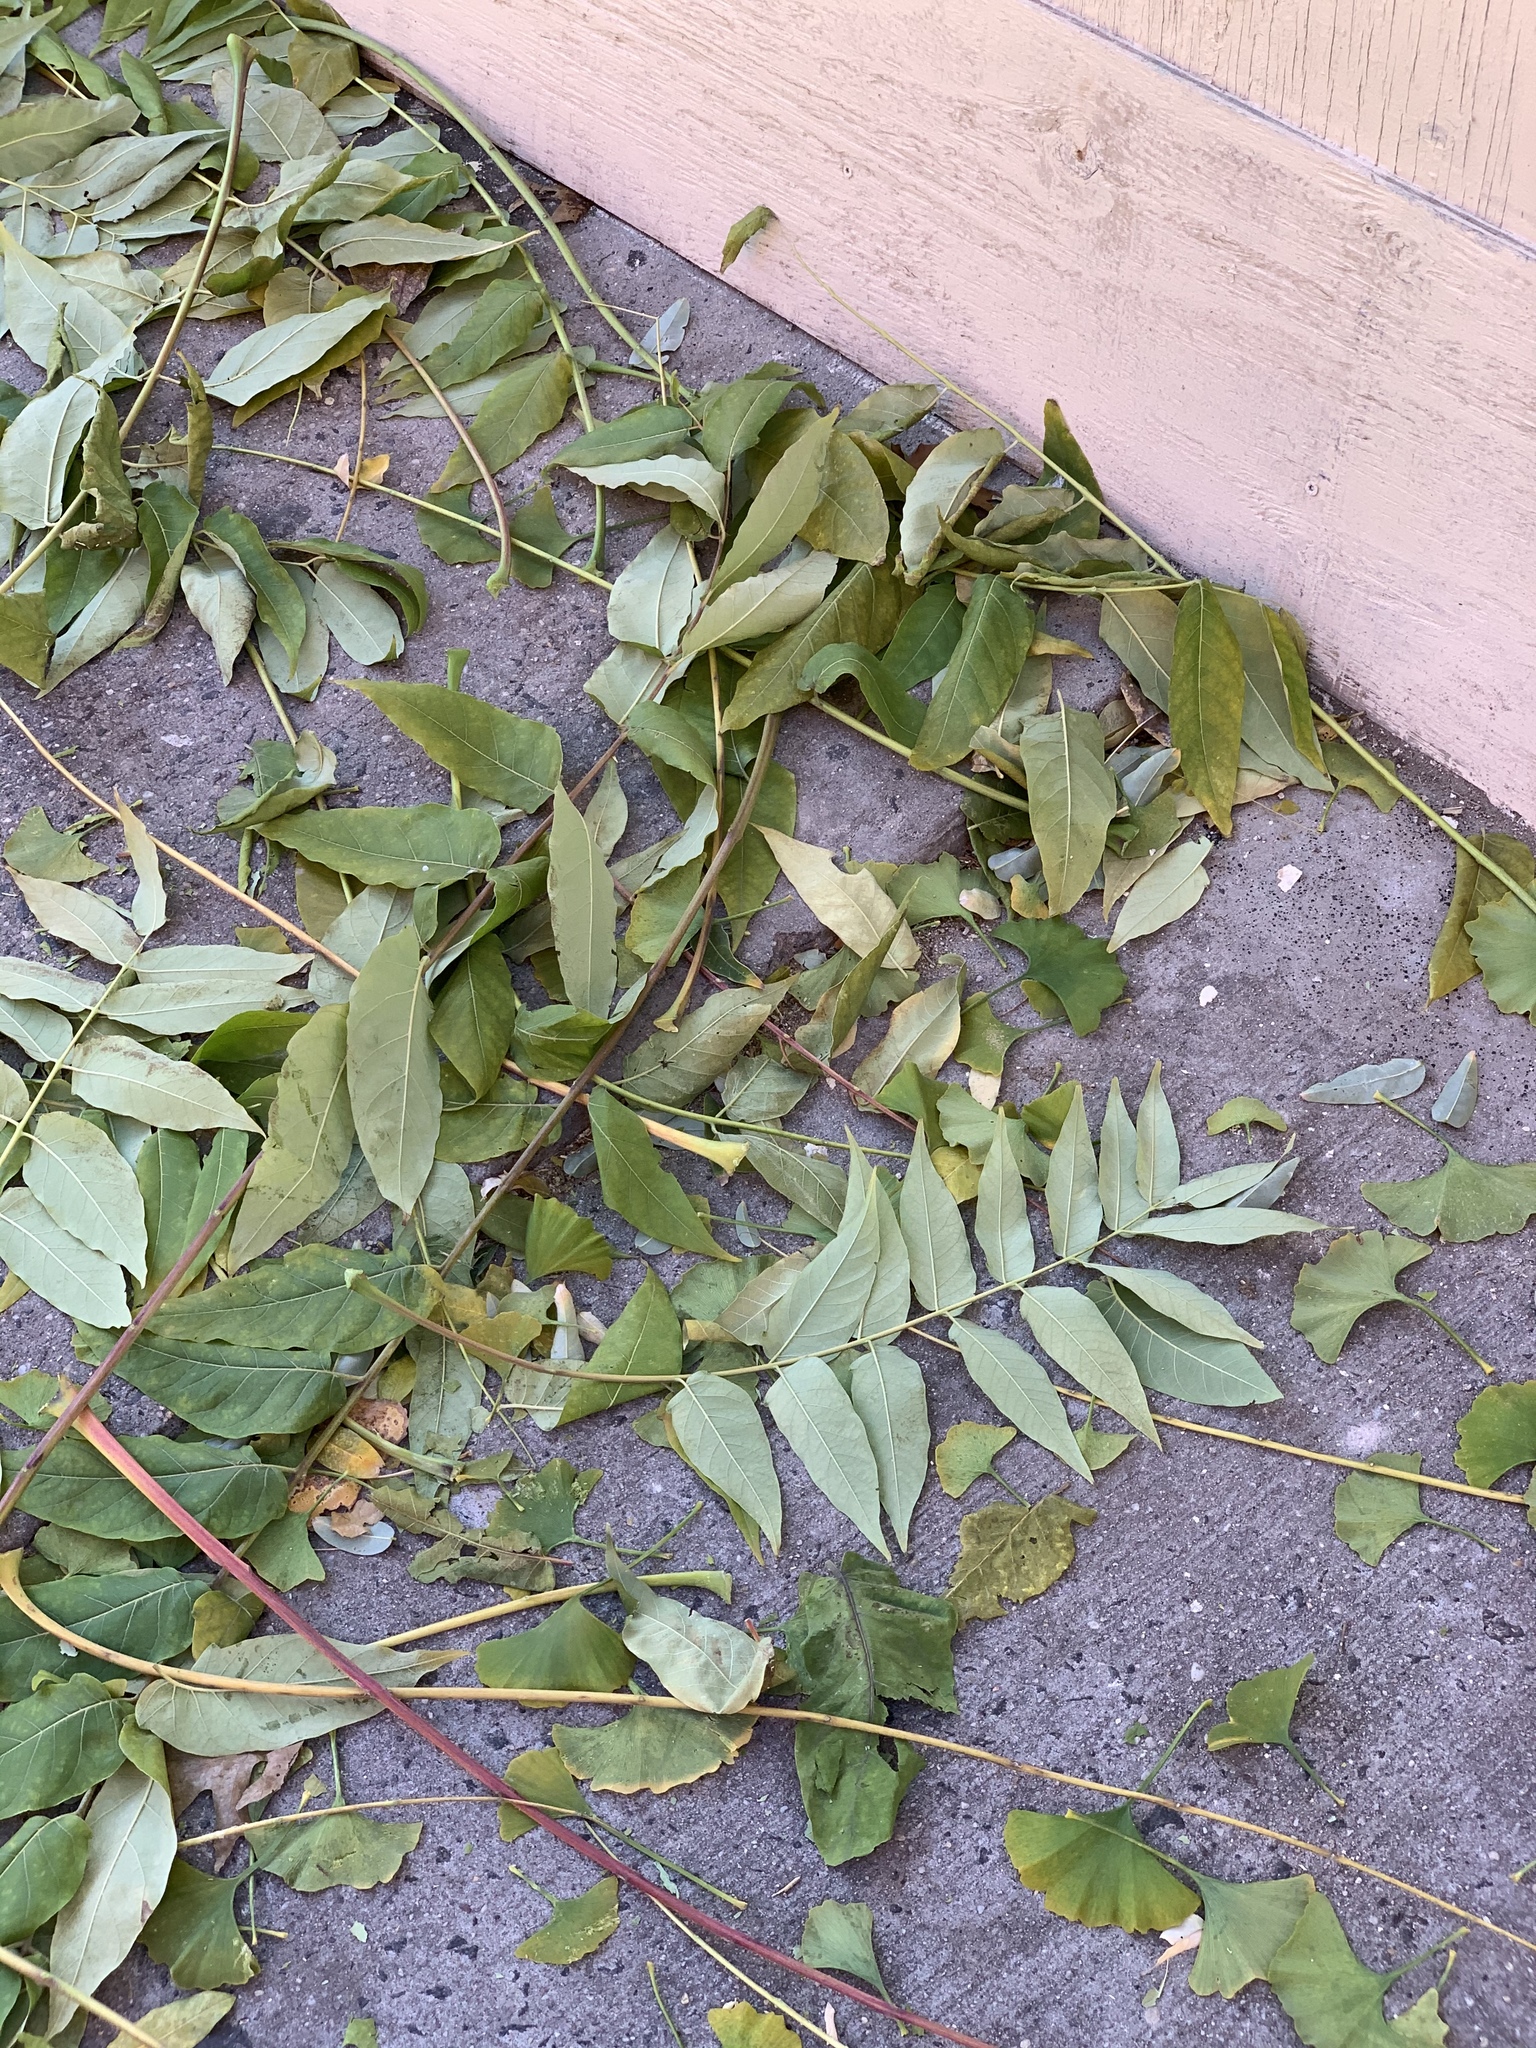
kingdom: Plantae
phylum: Tracheophyta
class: Magnoliopsida
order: Sapindales
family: Simaroubaceae
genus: Ailanthus
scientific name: Ailanthus altissima
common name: Tree-of-heaven
